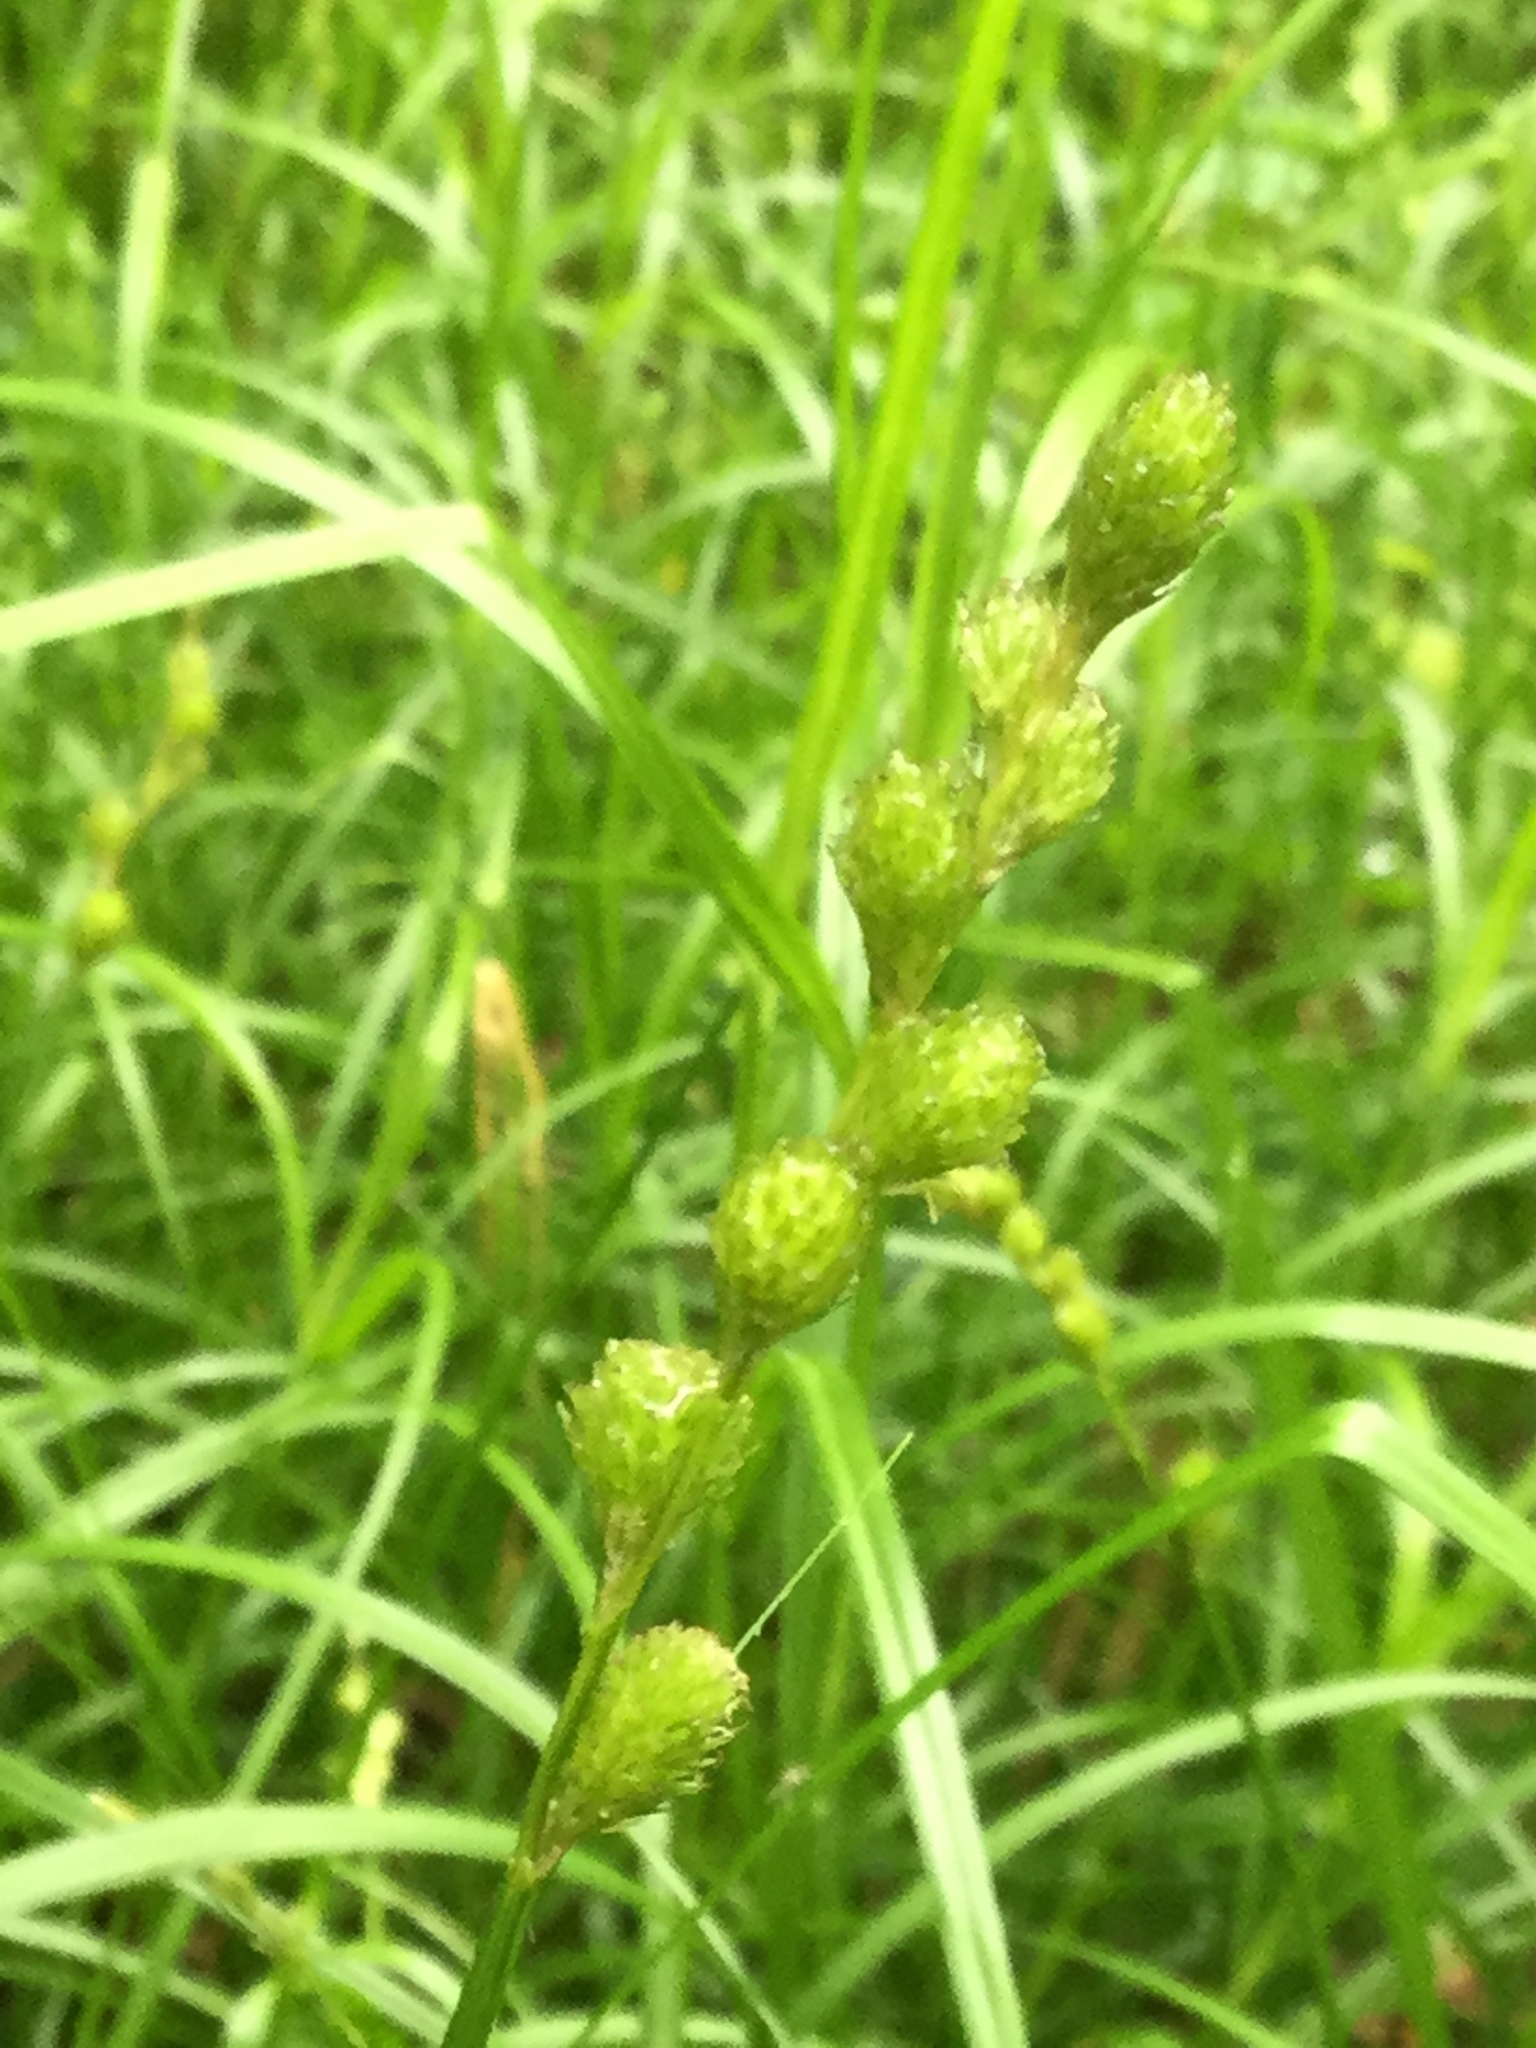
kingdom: Plantae
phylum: Tracheophyta
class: Liliopsida
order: Poales
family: Cyperaceae
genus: Carex
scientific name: Carex tribuloides
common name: Blunt broom sedge
